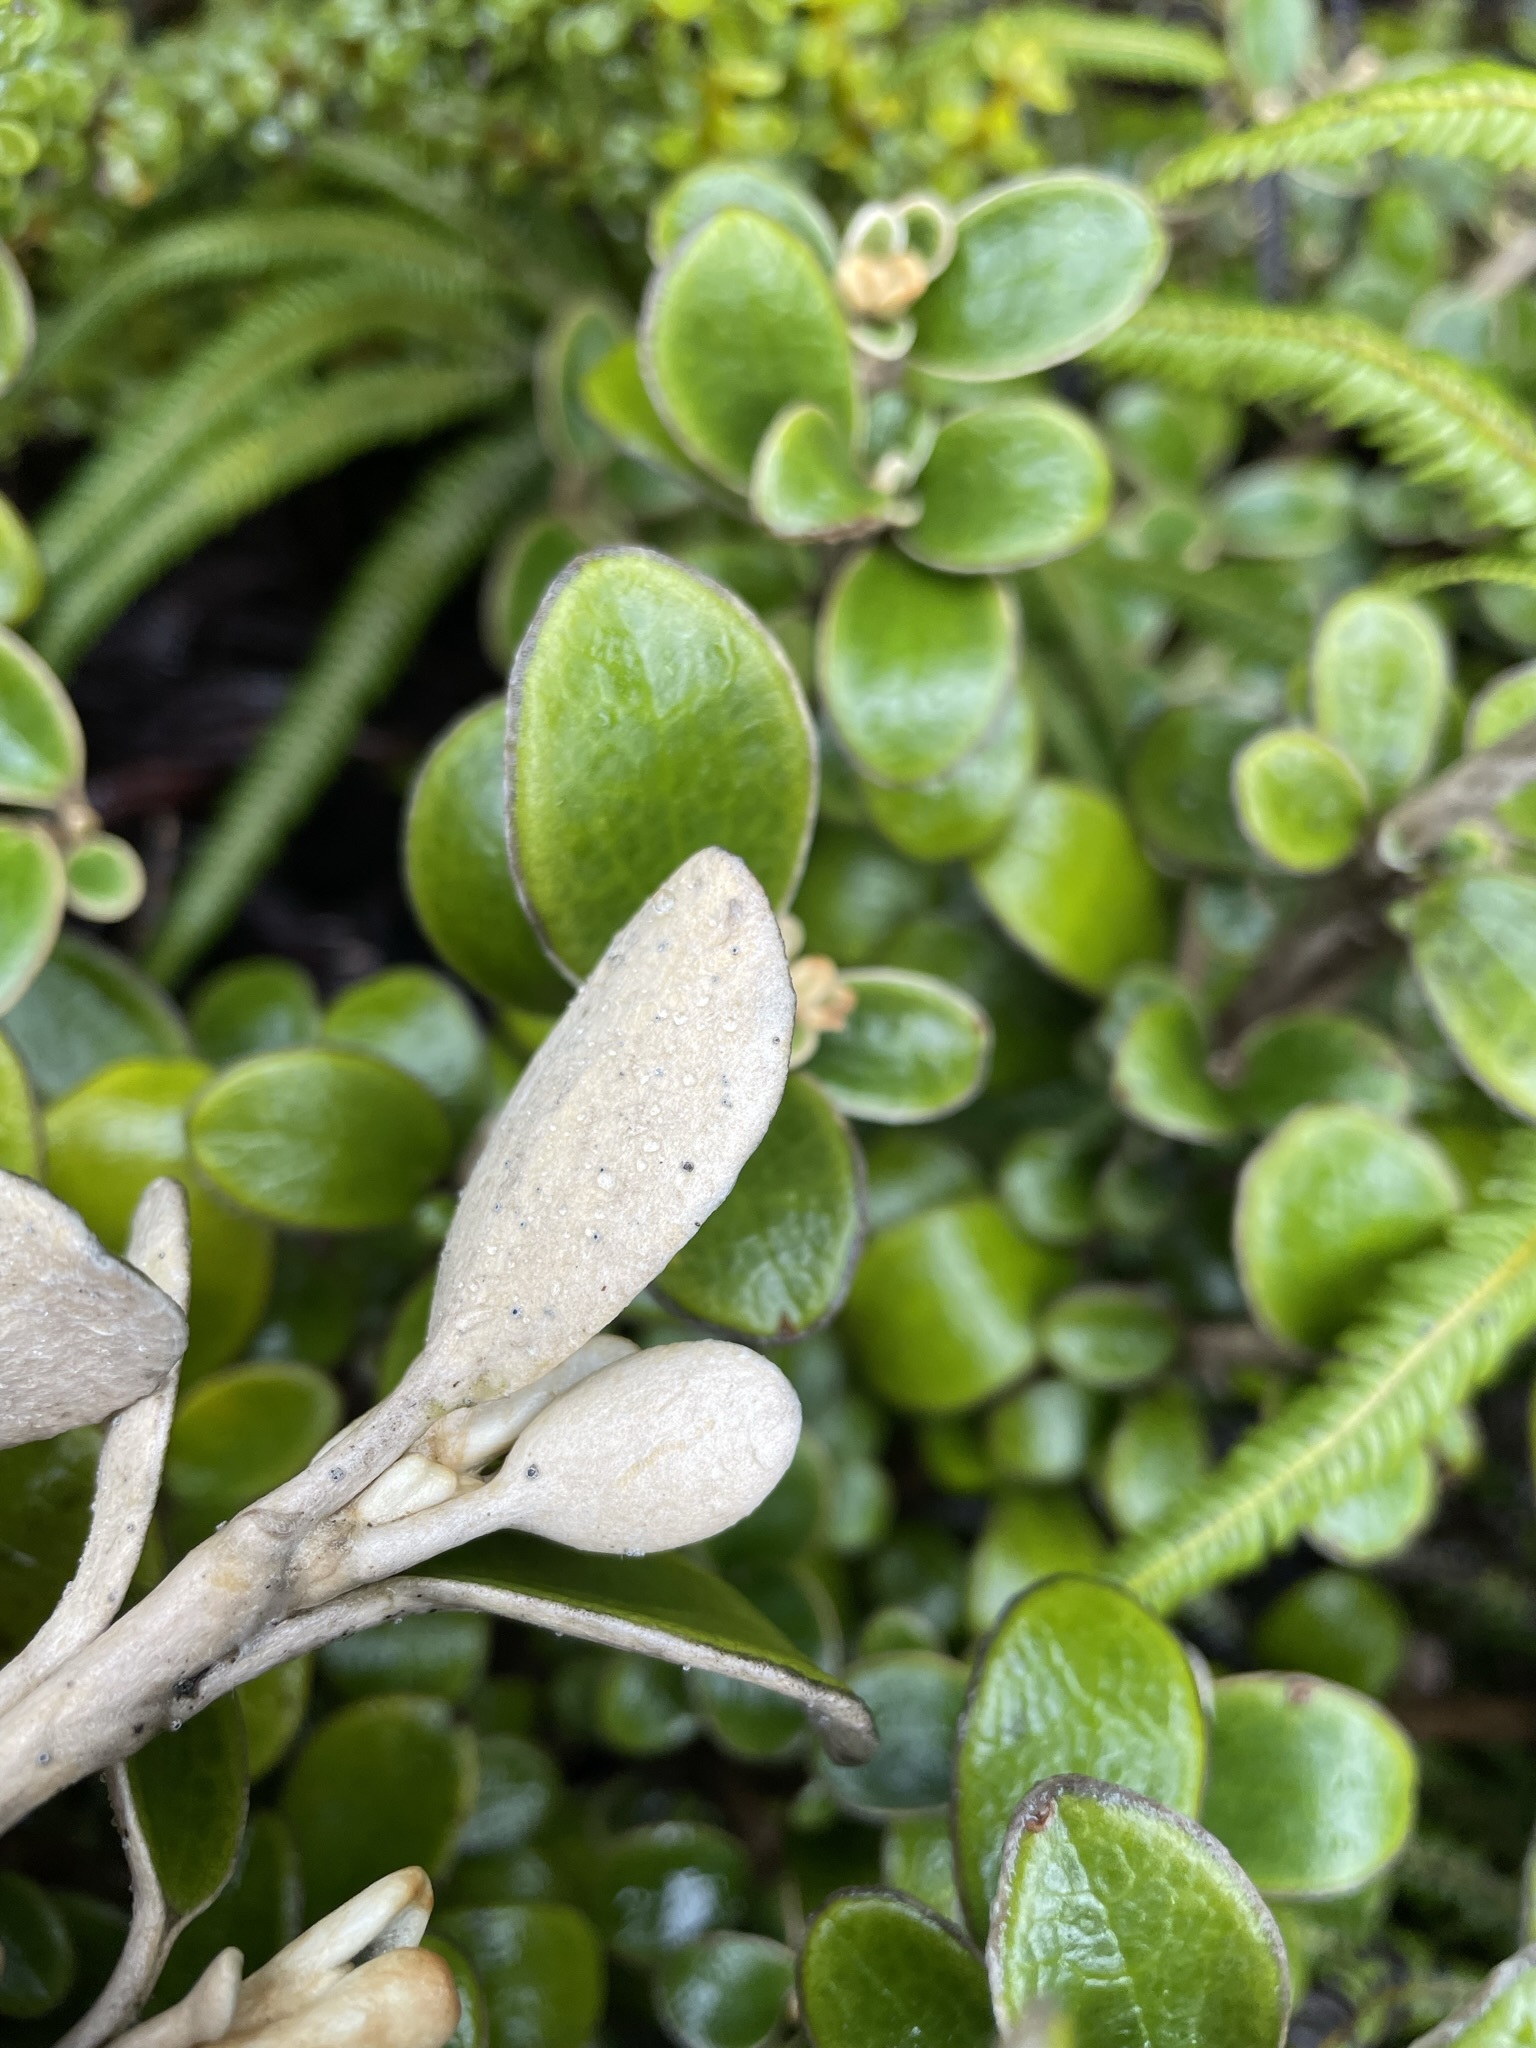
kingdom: Plantae
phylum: Tracheophyta
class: Magnoliopsida
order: Asterales
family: Asteraceae
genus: Brachyglottis
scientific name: Brachyglottis bidwillii
